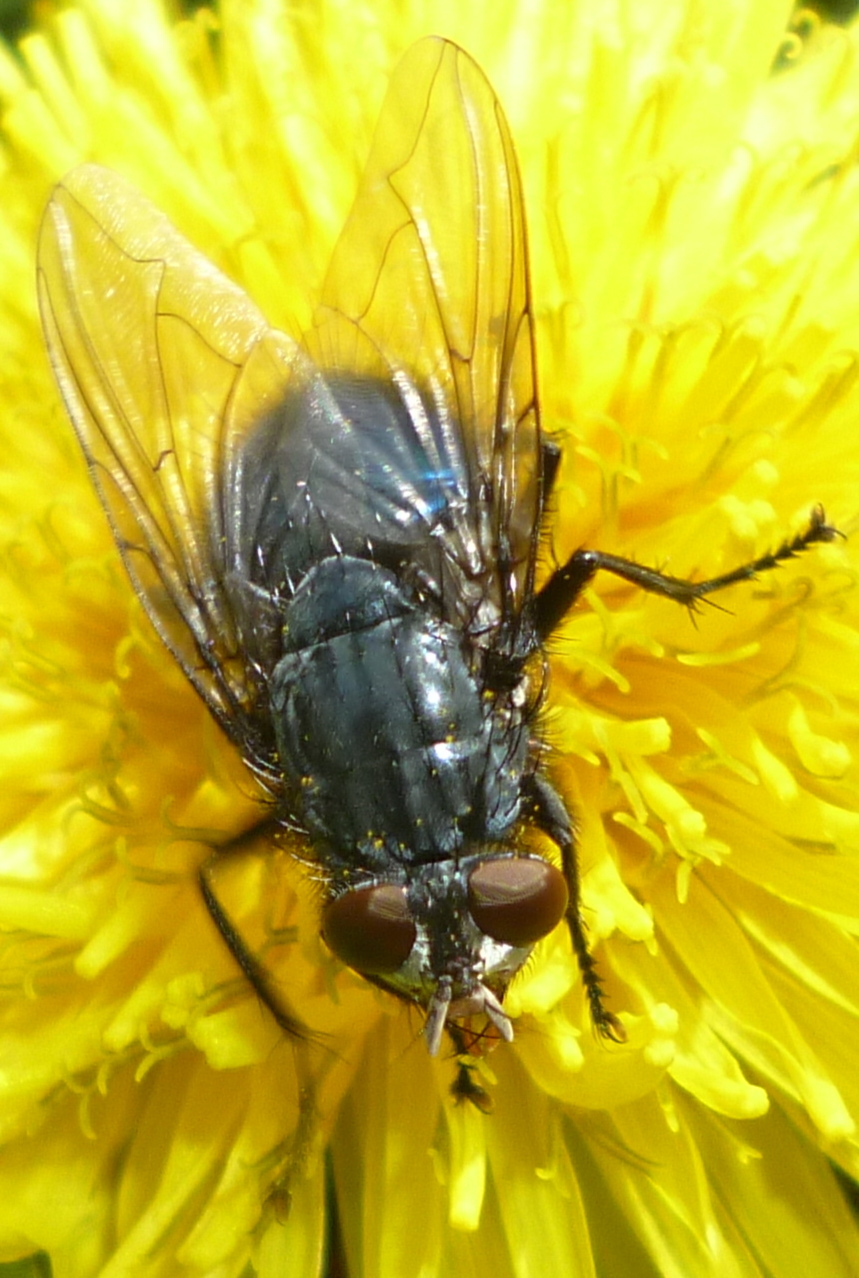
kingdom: Animalia
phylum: Arthropoda
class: Insecta
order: Diptera
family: Calliphoridae
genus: Cynomya
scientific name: Cynomya cadaverina
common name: Shiny blue bottle fly
